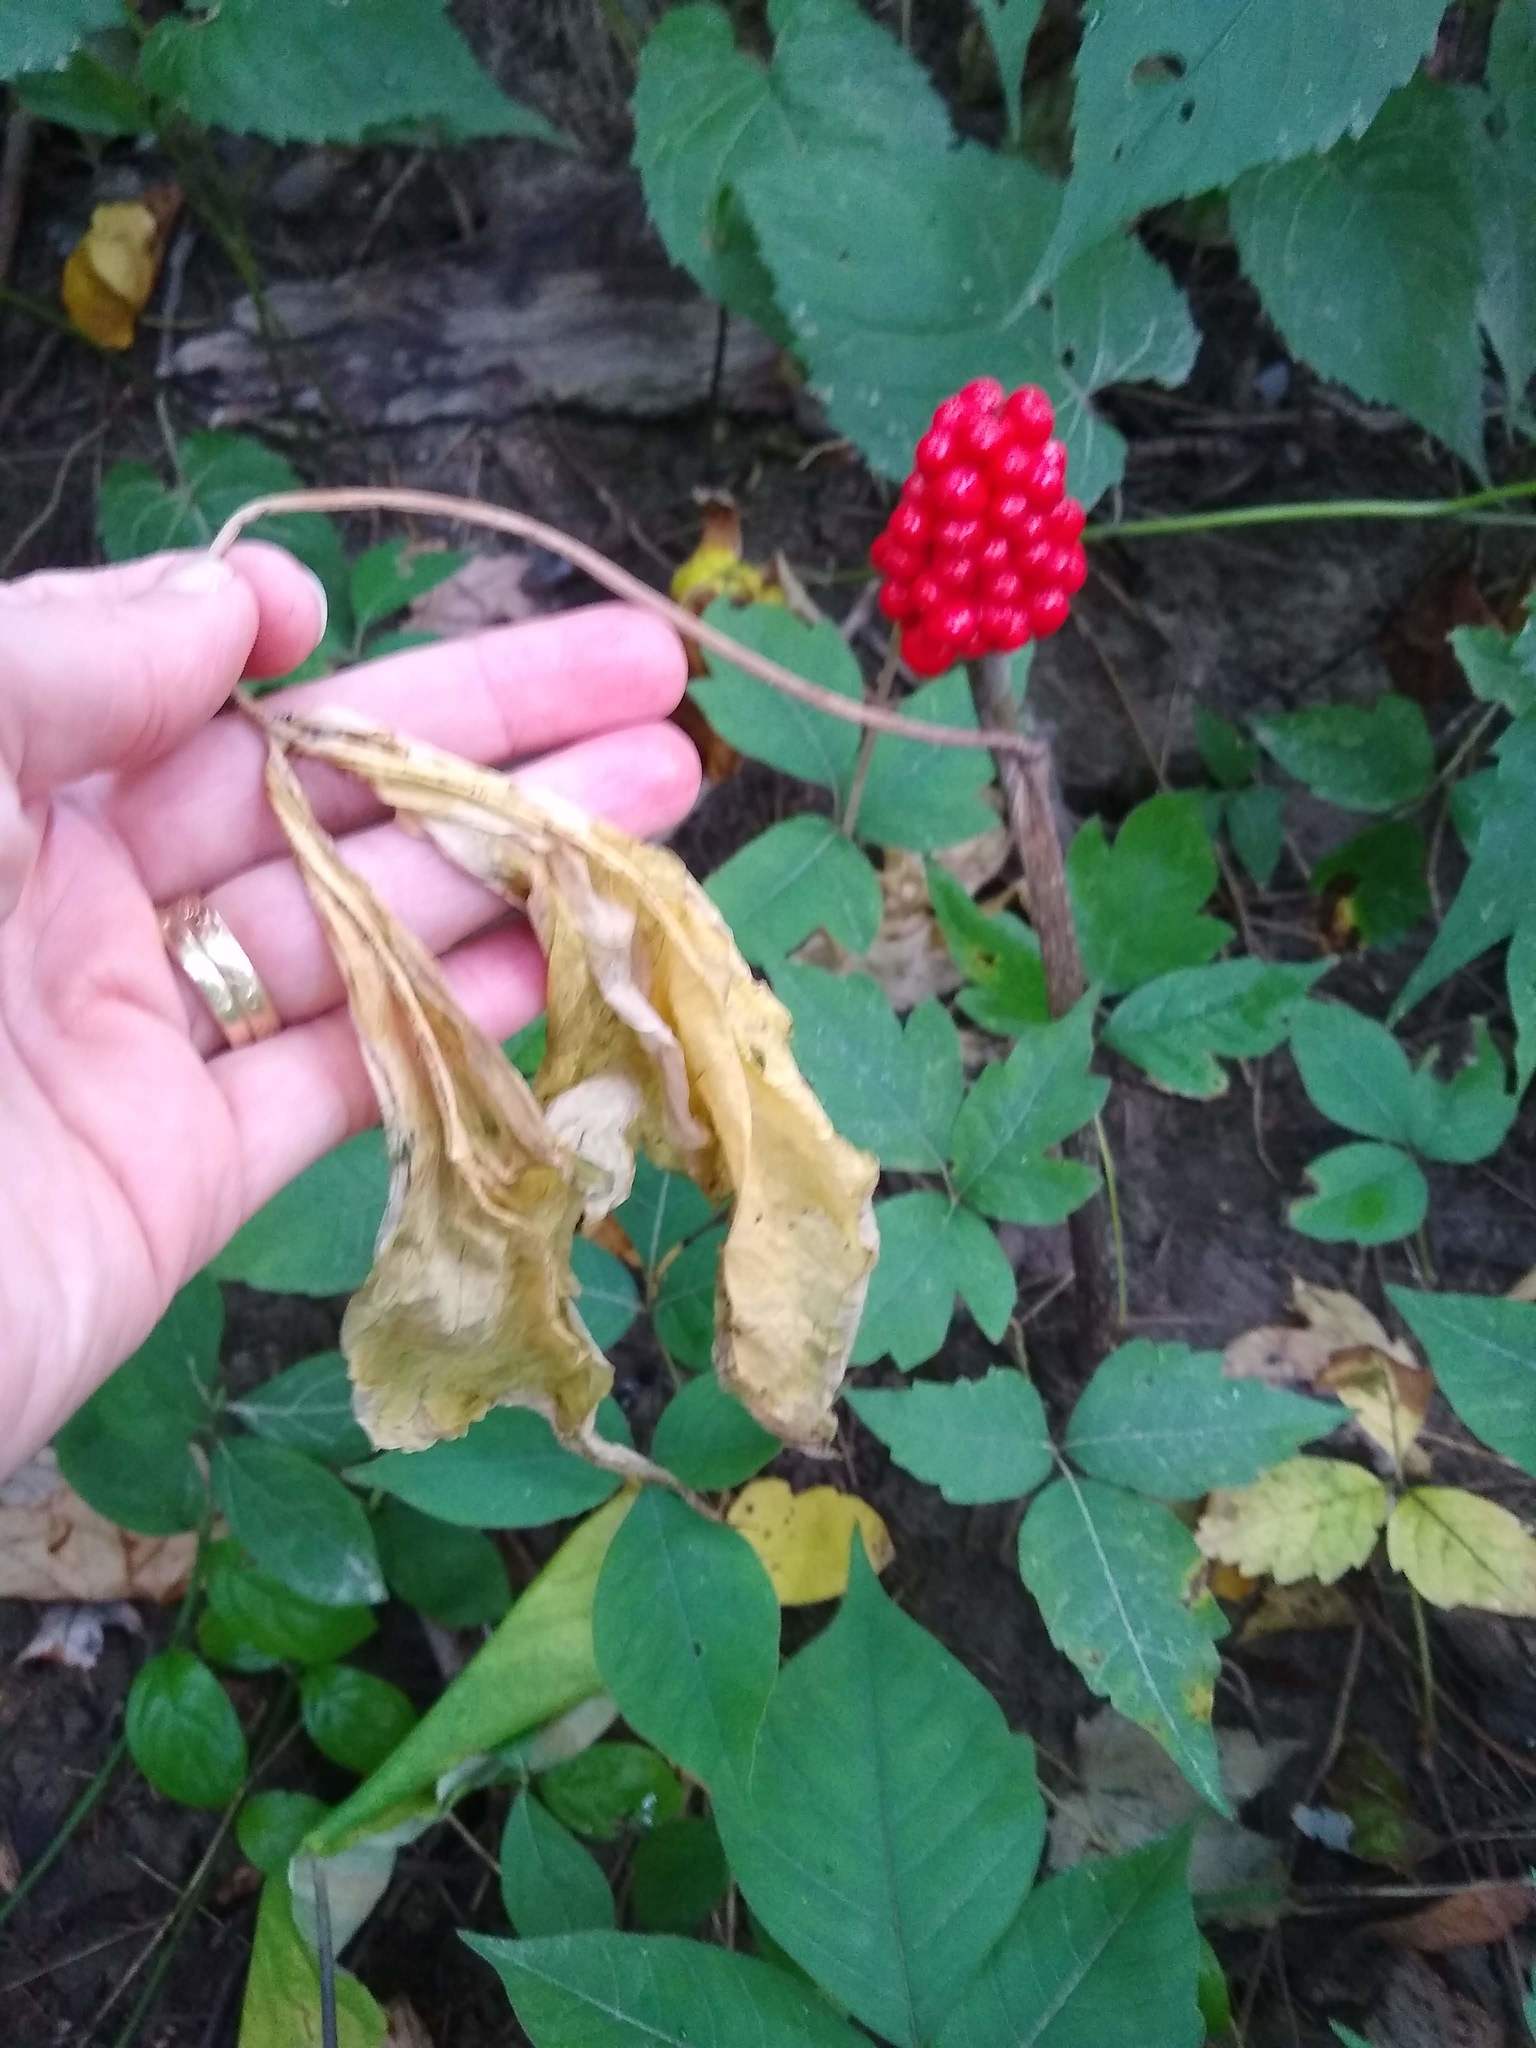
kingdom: Plantae
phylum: Tracheophyta
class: Liliopsida
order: Alismatales
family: Araceae
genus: Arisaema
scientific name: Arisaema triphyllum
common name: Jack-in-the-pulpit
